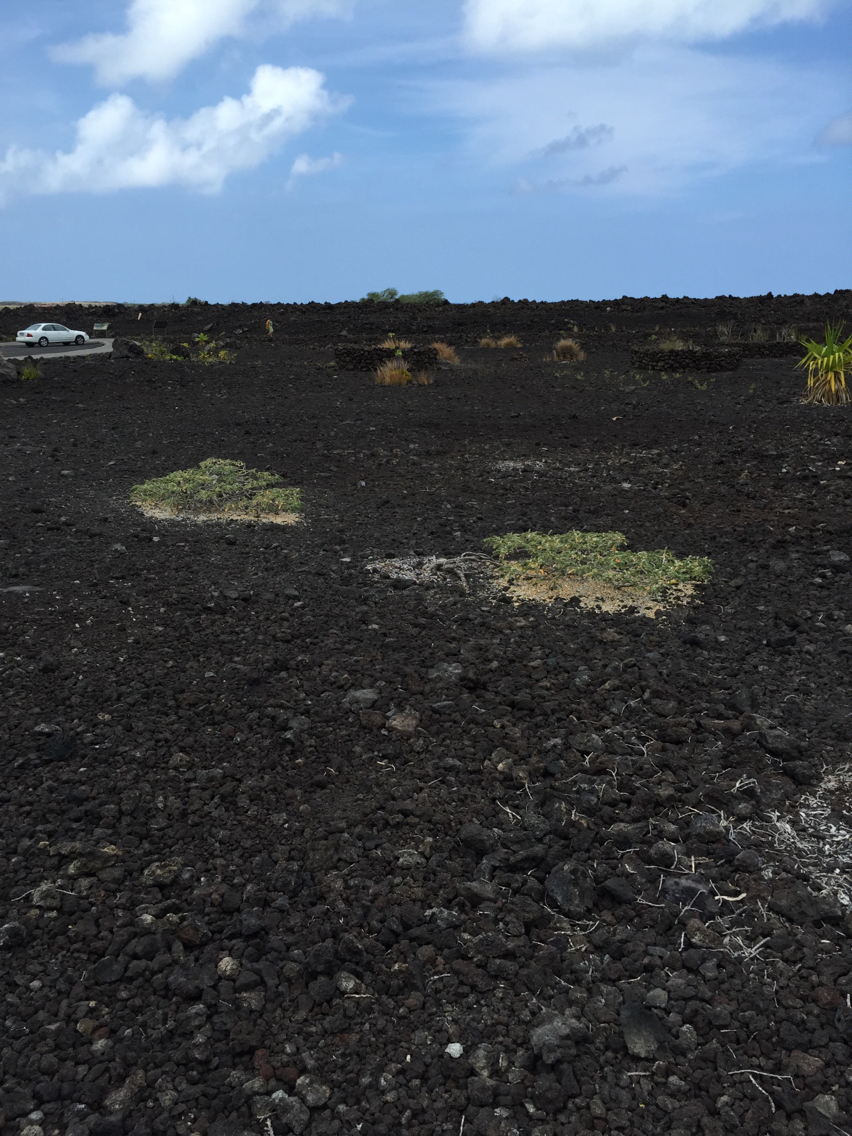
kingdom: Plantae
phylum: Tracheophyta
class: Magnoliopsida
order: Fabales
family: Fabaceae
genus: Sesbania
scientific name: Sesbania tomentosa
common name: `ohai
